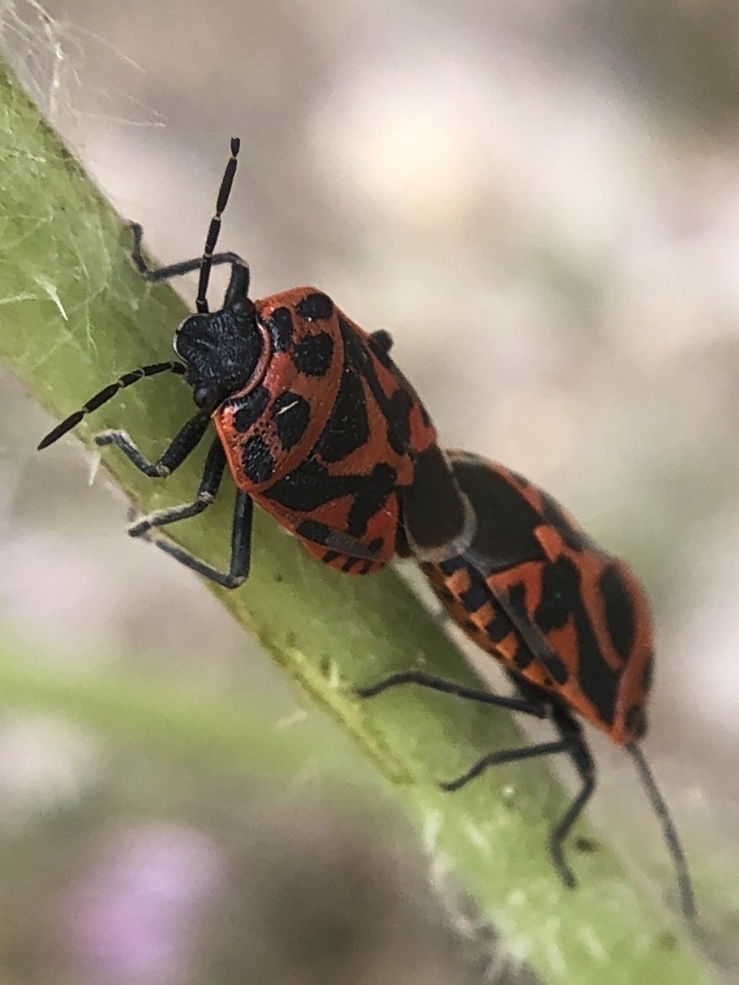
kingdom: Animalia
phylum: Arthropoda
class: Insecta
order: Hemiptera
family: Pentatomidae
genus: Eurydema
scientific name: Eurydema ornata
